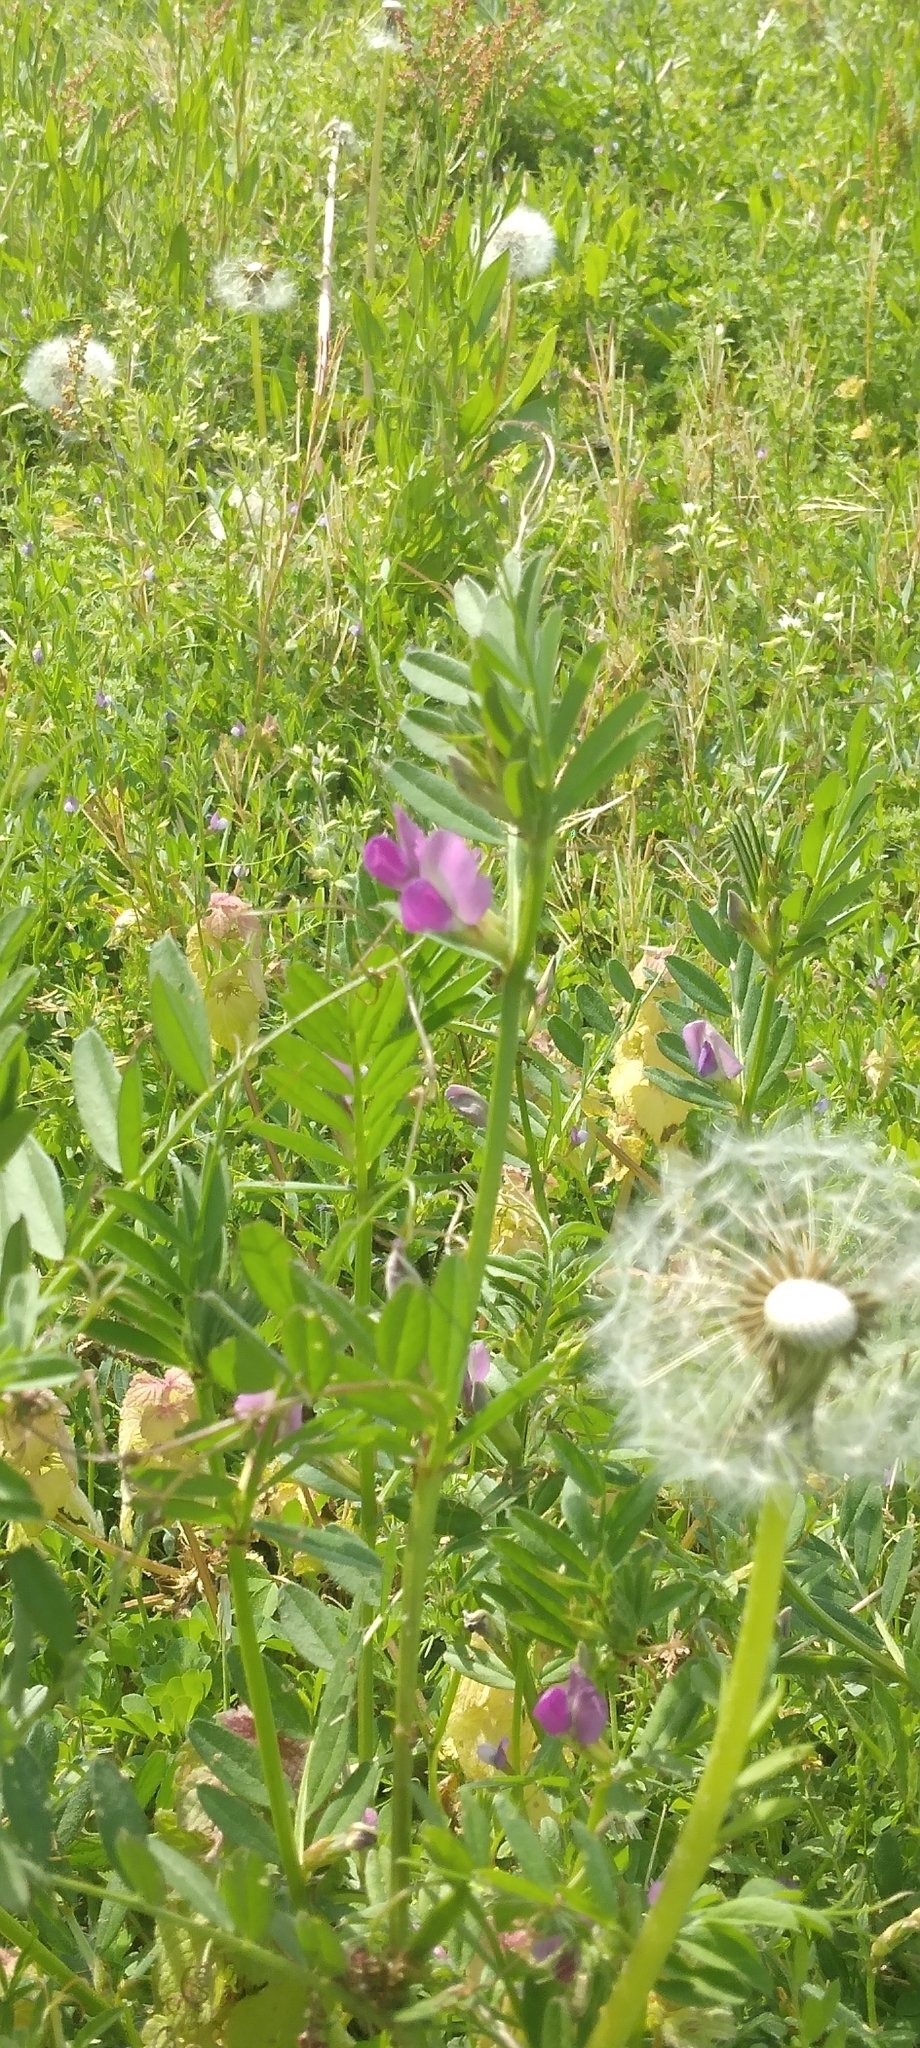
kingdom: Plantae
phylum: Tracheophyta
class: Magnoliopsida
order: Fabales
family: Fabaceae
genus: Vicia
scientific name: Vicia sativa
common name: Garden vetch
